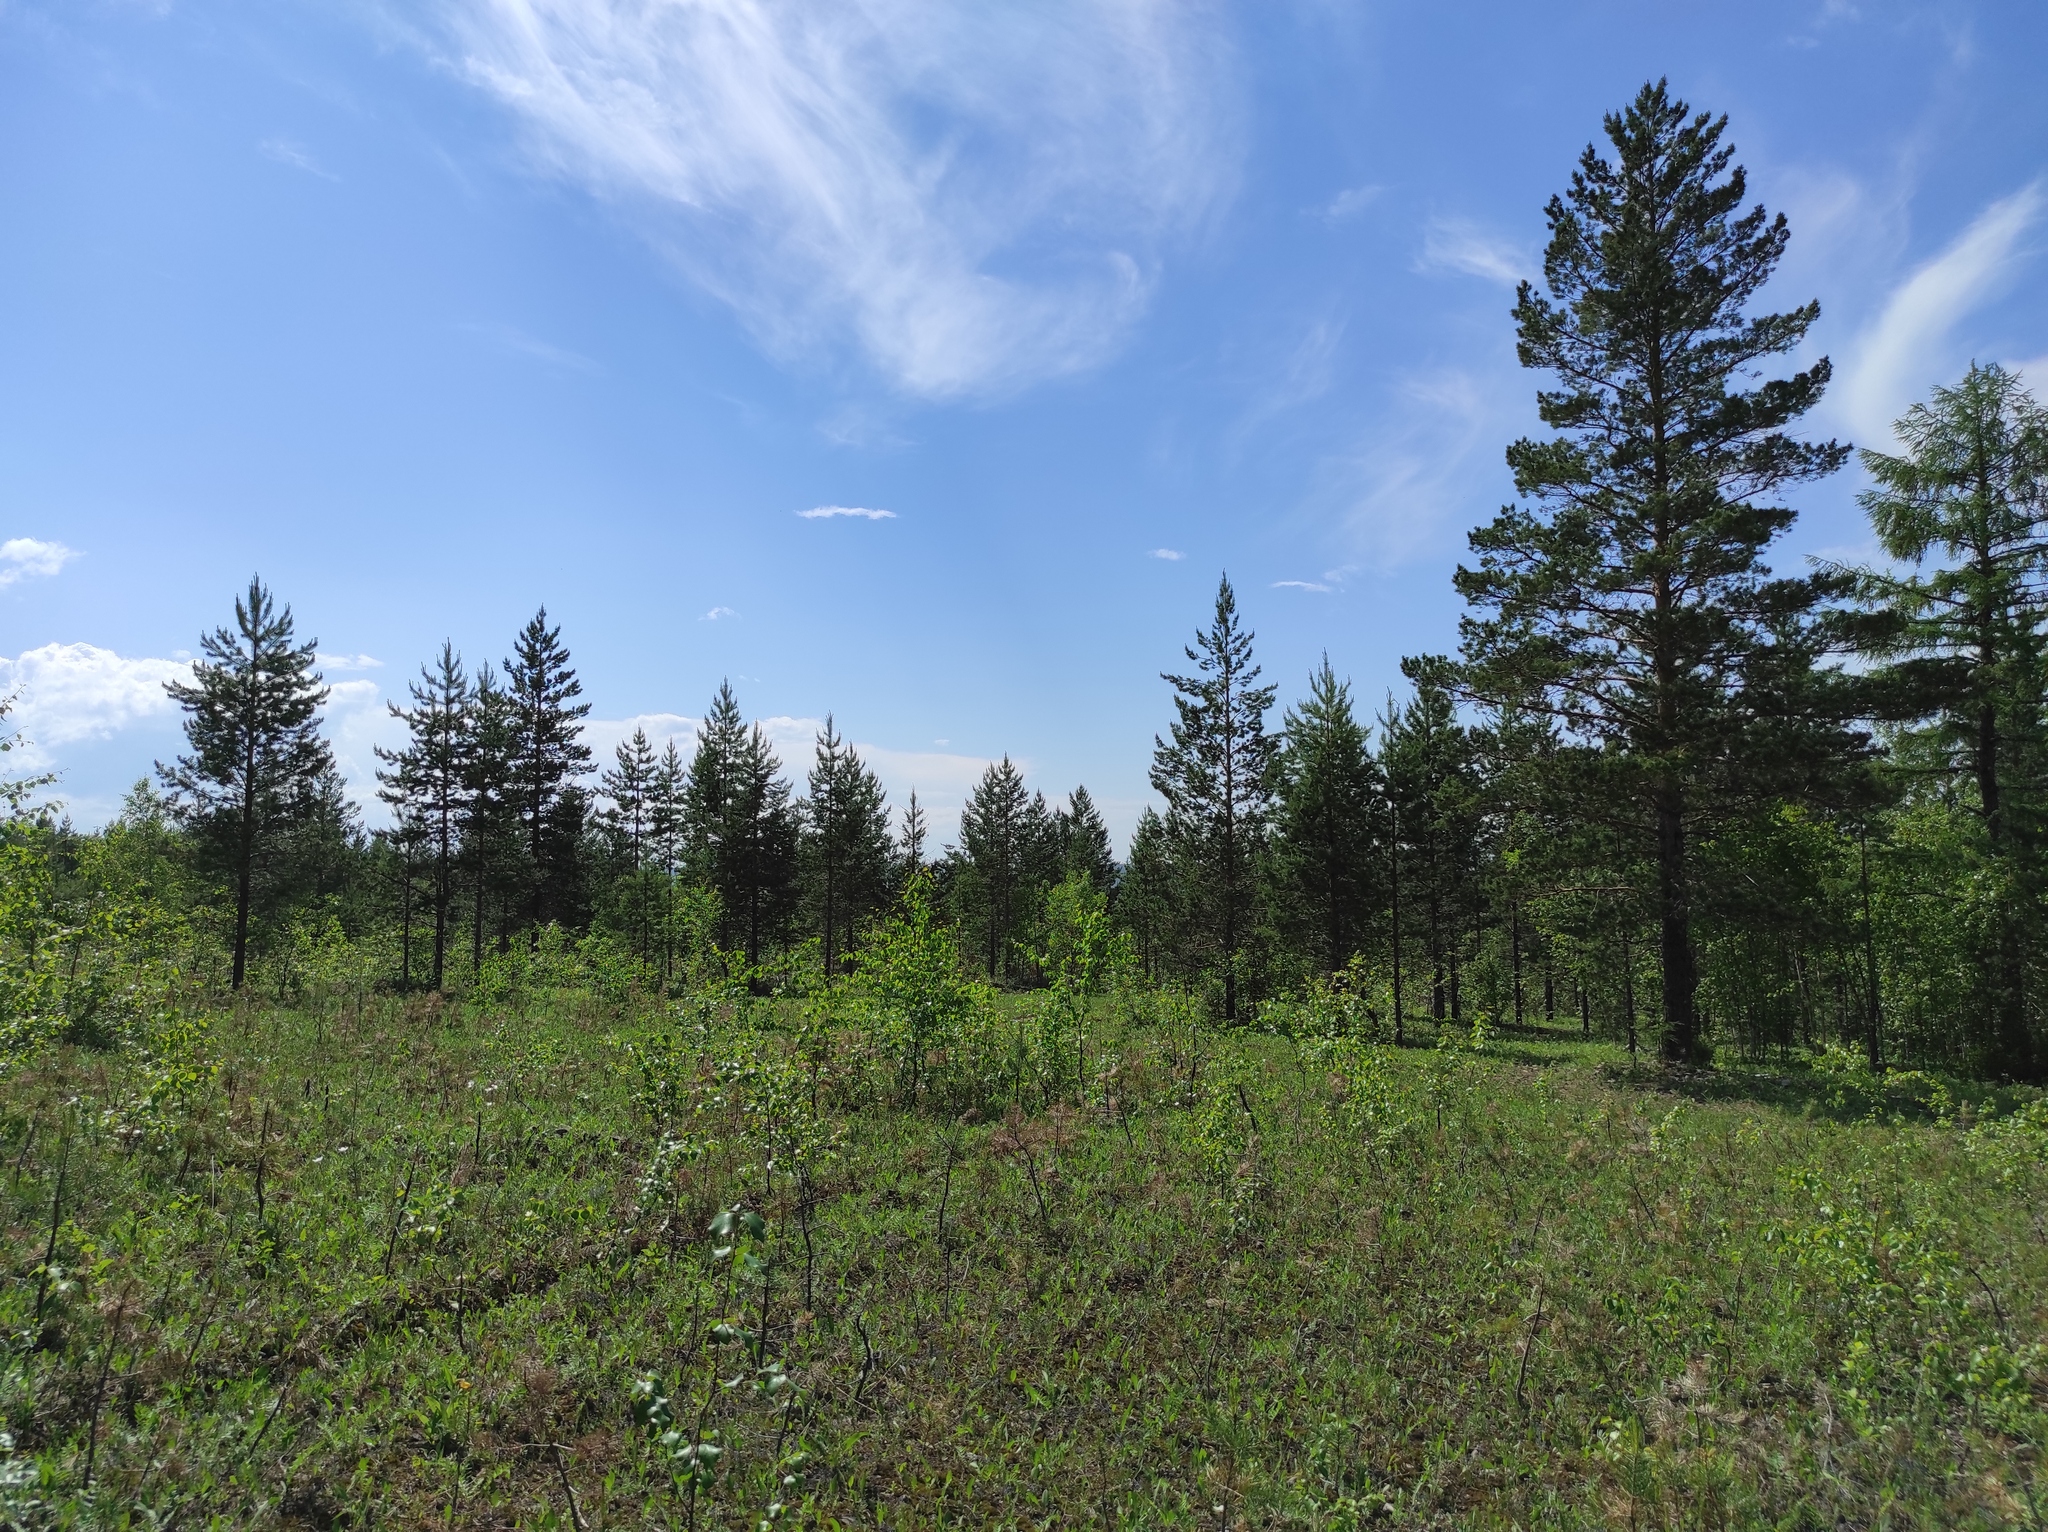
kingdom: Plantae
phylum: Tracheophyta
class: Magnoliopsida
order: Rosales
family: Rosaceae
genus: Sanguisorba
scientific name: Sanguisorba officinalis
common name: Great burnet
